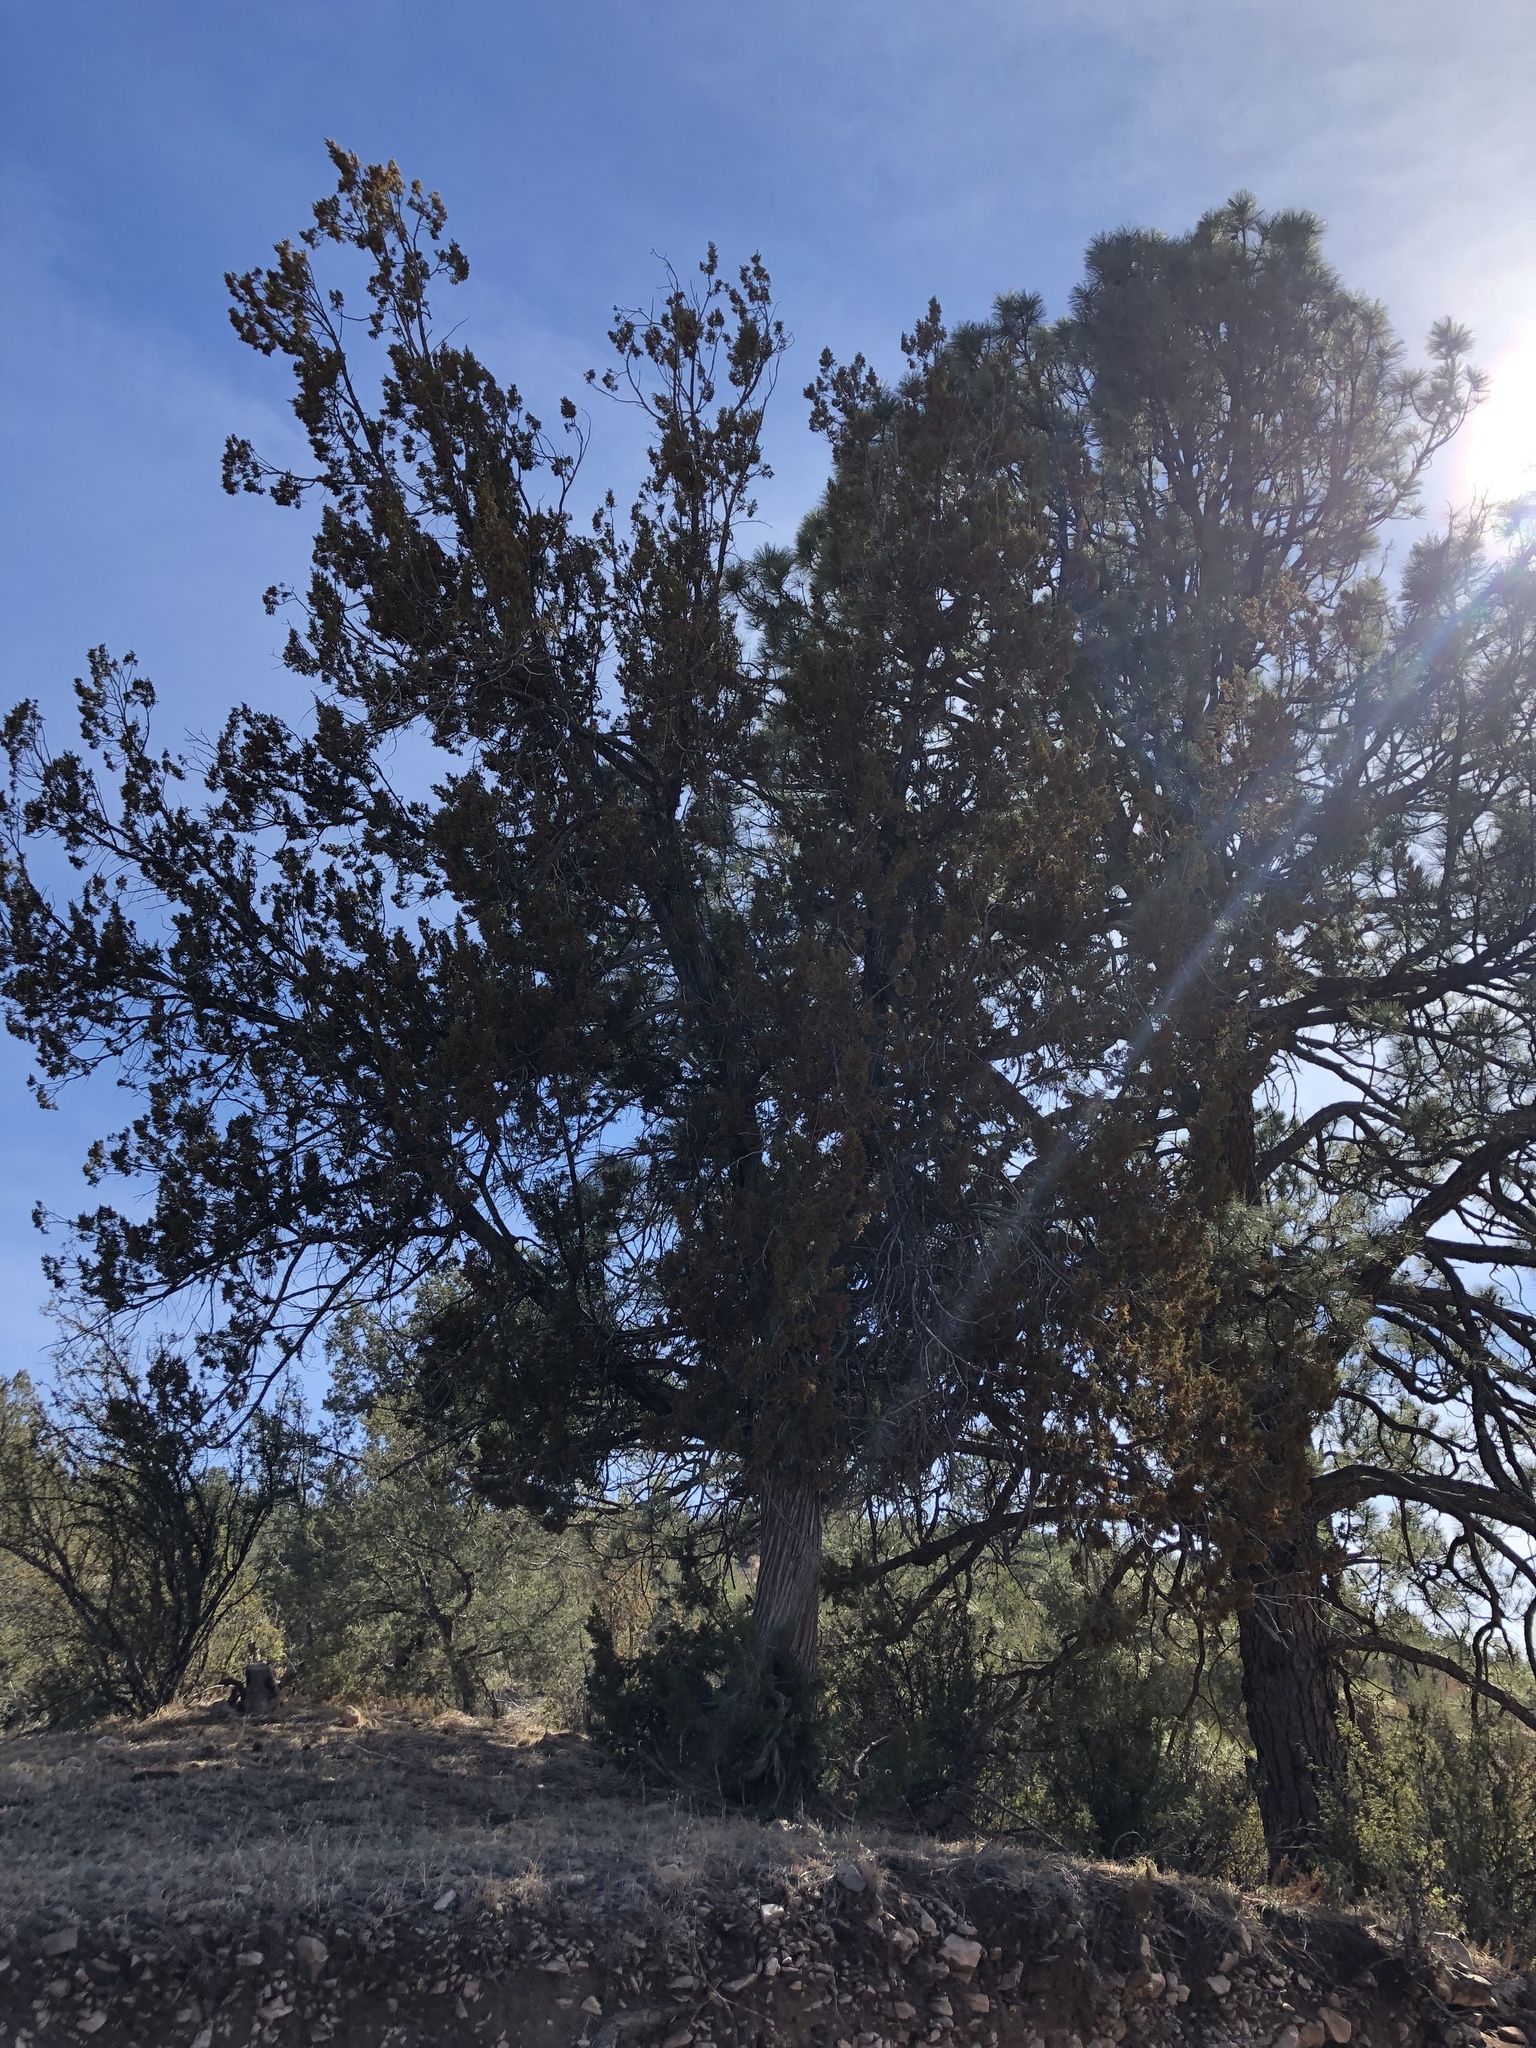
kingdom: Plantae
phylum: Tracheophyta
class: Pinopsida
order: Pinales
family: Cupressaceae
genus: Juniperus
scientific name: Juniperus monosperma
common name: One-seed juniper
